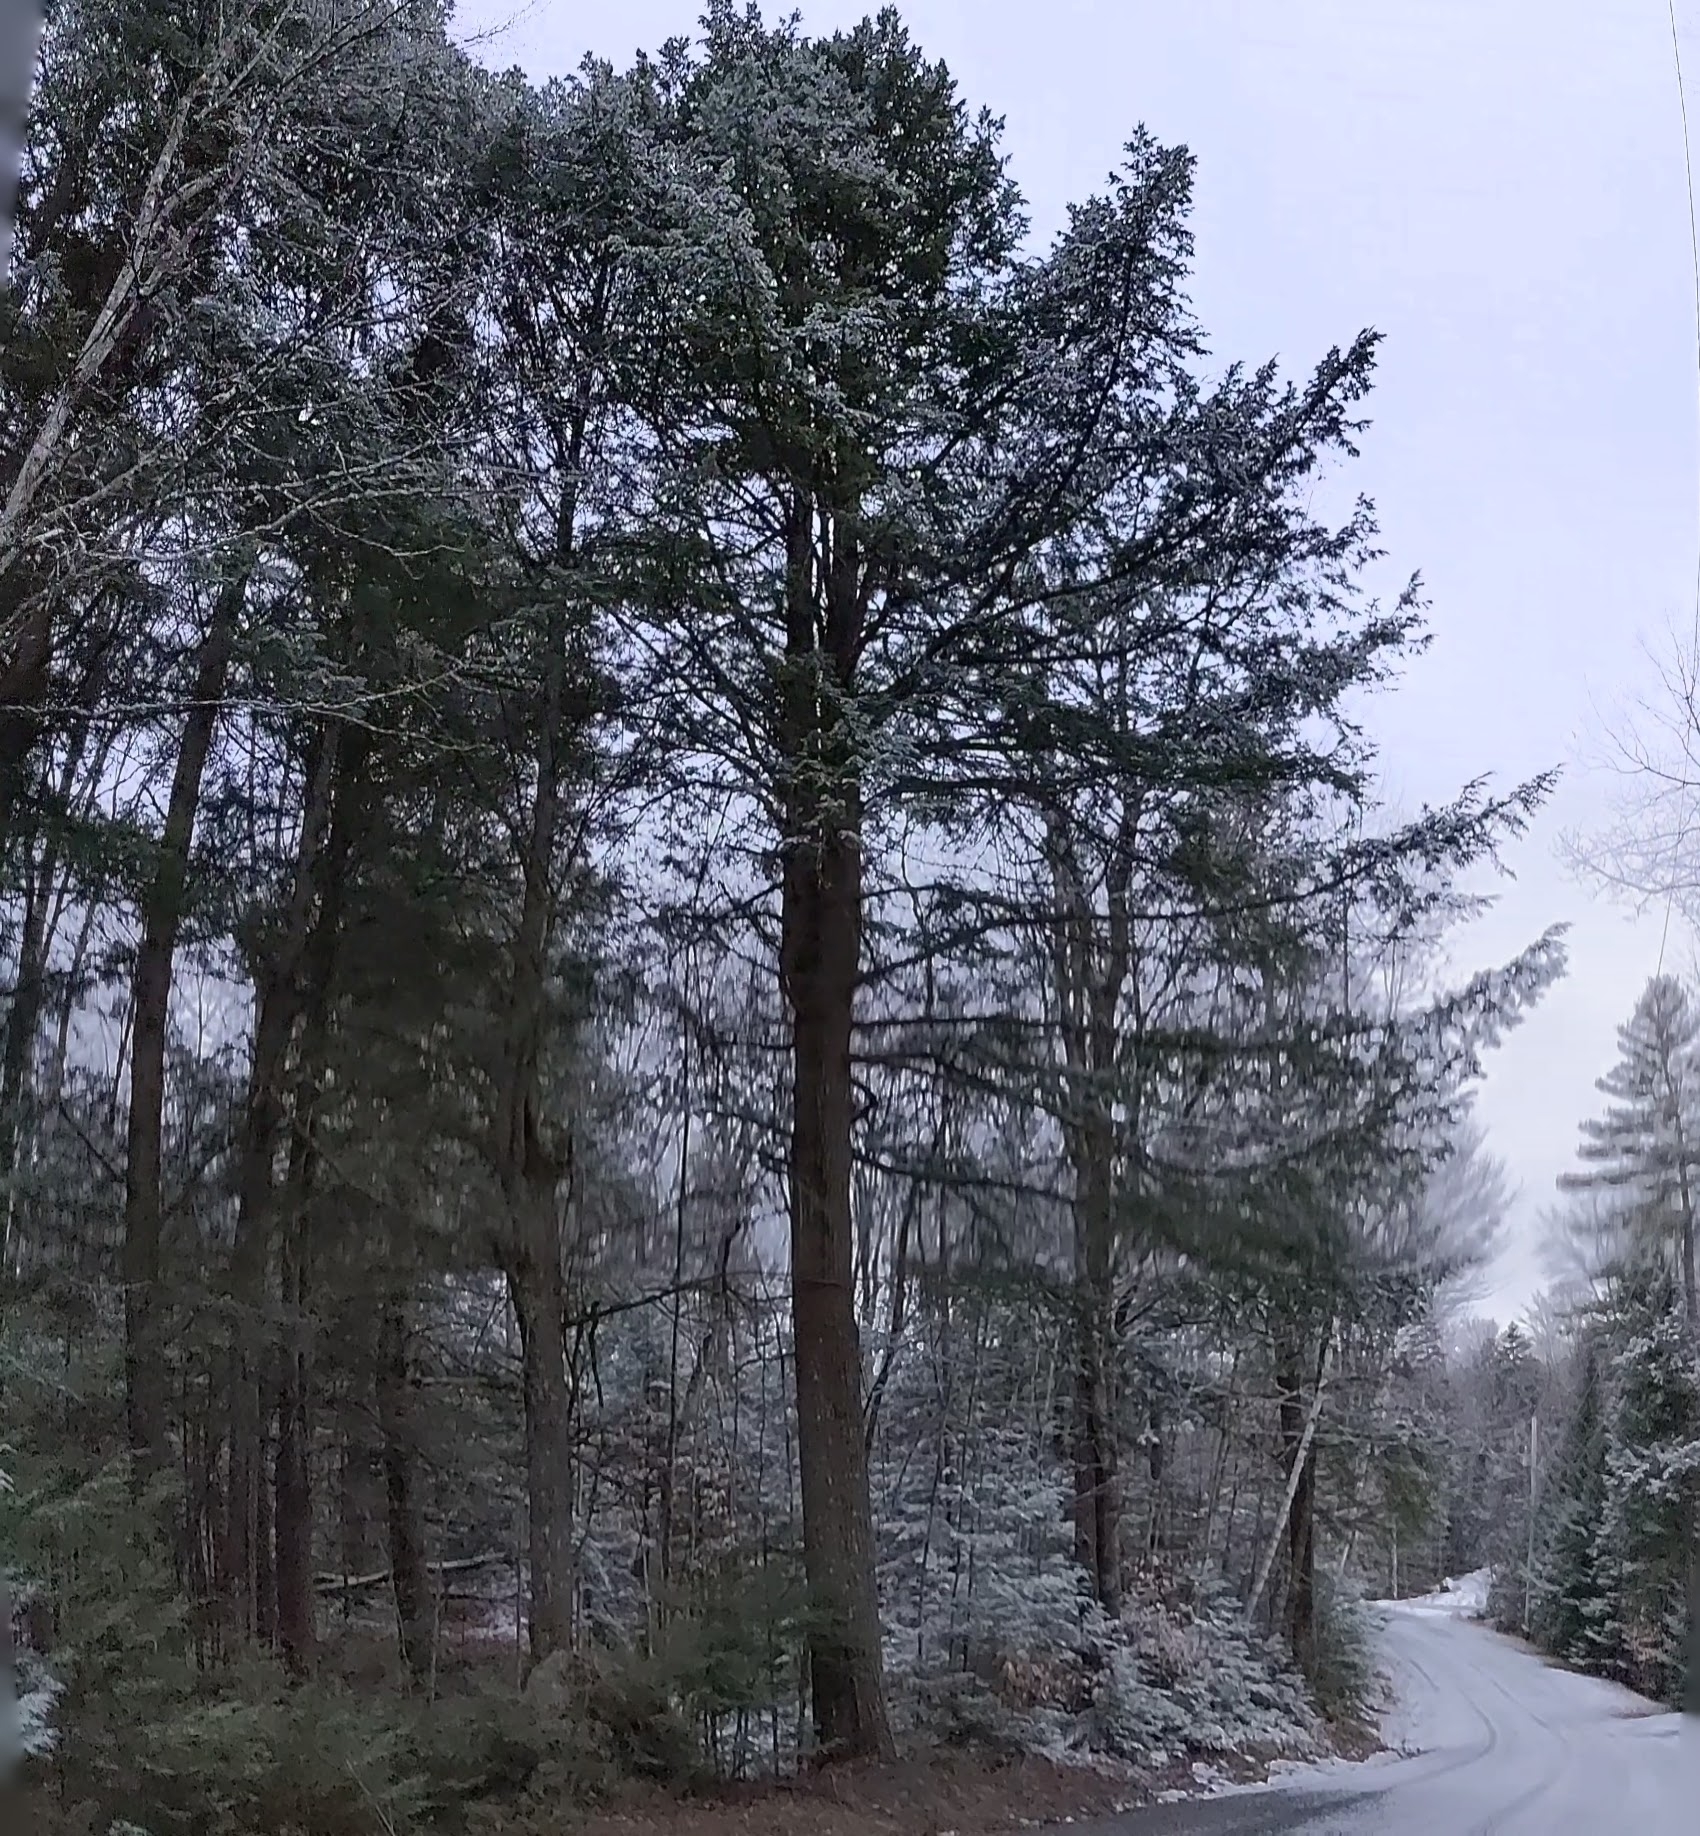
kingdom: Plantae
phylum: Tracheophyta
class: Pinopsida
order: Pinales
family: Pinaceae
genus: Tsuga
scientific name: Tsuga canadensis
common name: Eastern hemlock
